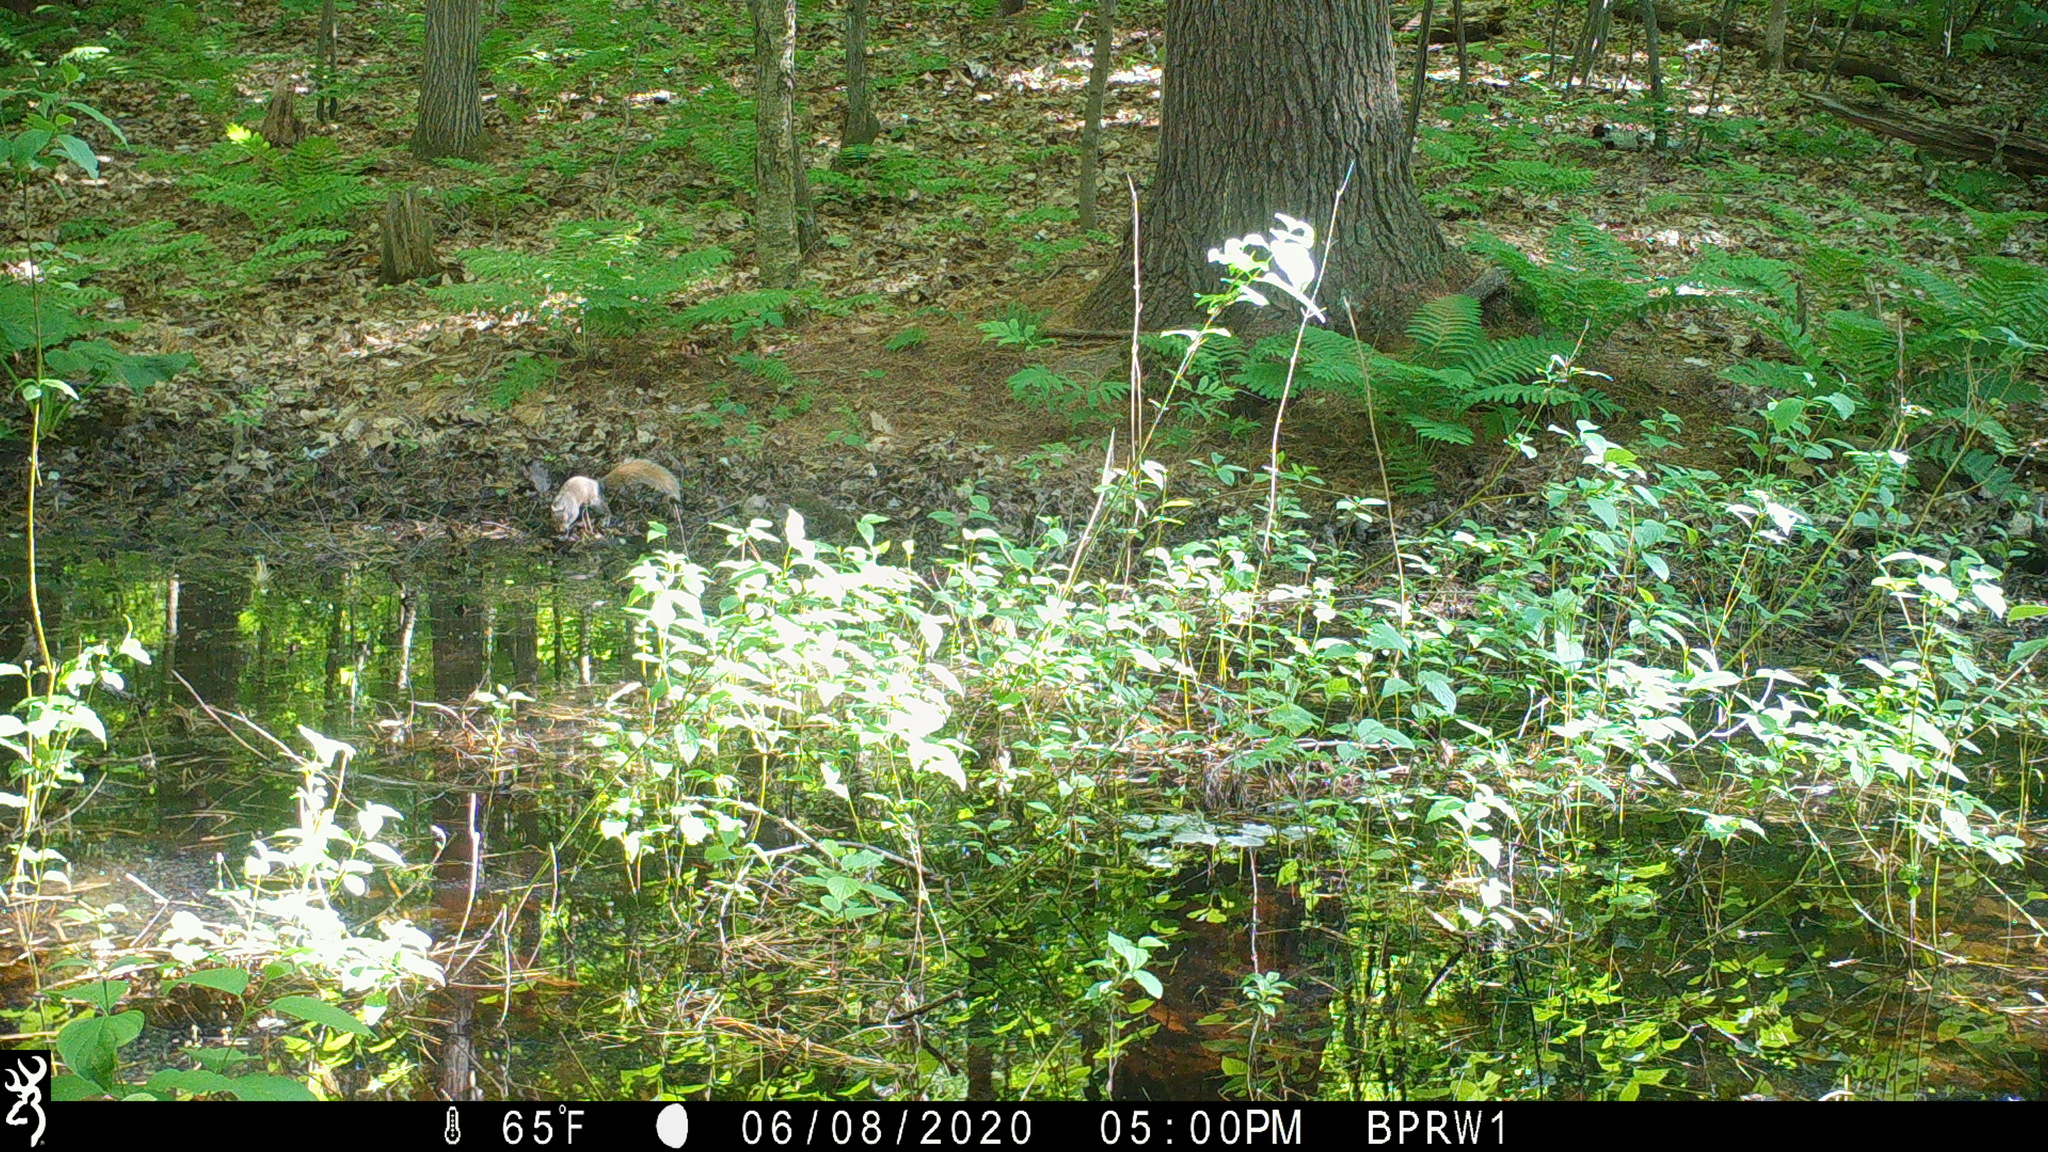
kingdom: Animalia
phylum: Chordata
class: Mammalia
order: Rodentia
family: Sciuridae
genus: Sciurus
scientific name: Sciurus carolinensis
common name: Eastern gray squirrel
